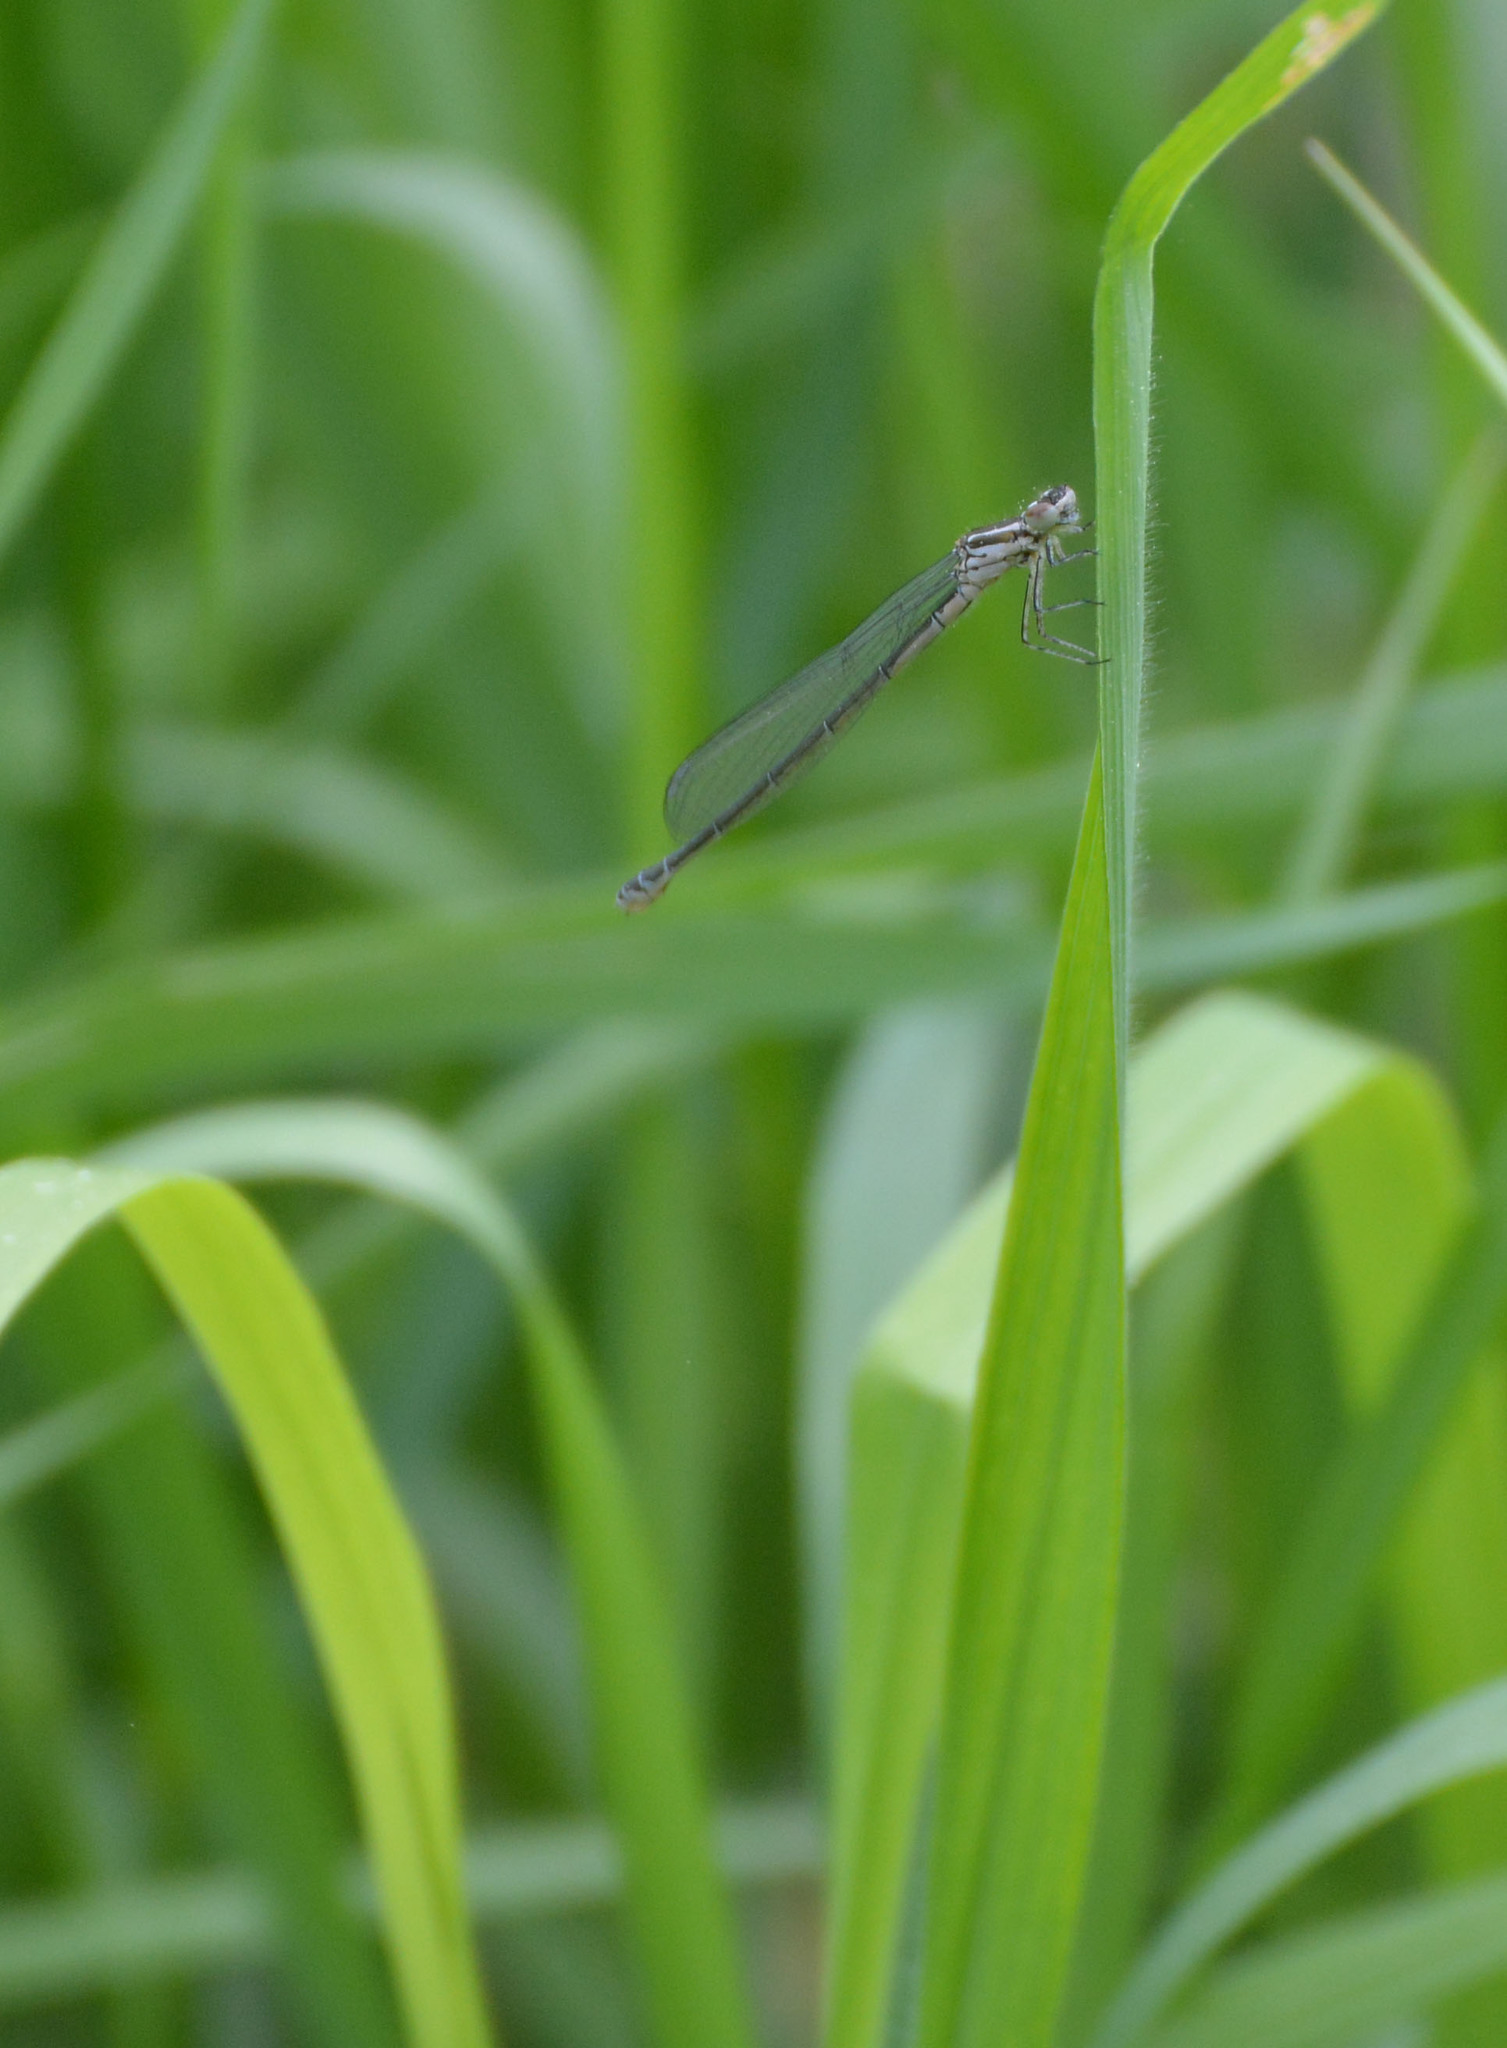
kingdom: Animalia
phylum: Arthropoda
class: Insecta
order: Odonata
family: Coenagrionidae
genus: Coenagrion
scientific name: Coenagrion puella
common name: Azure damselfly
